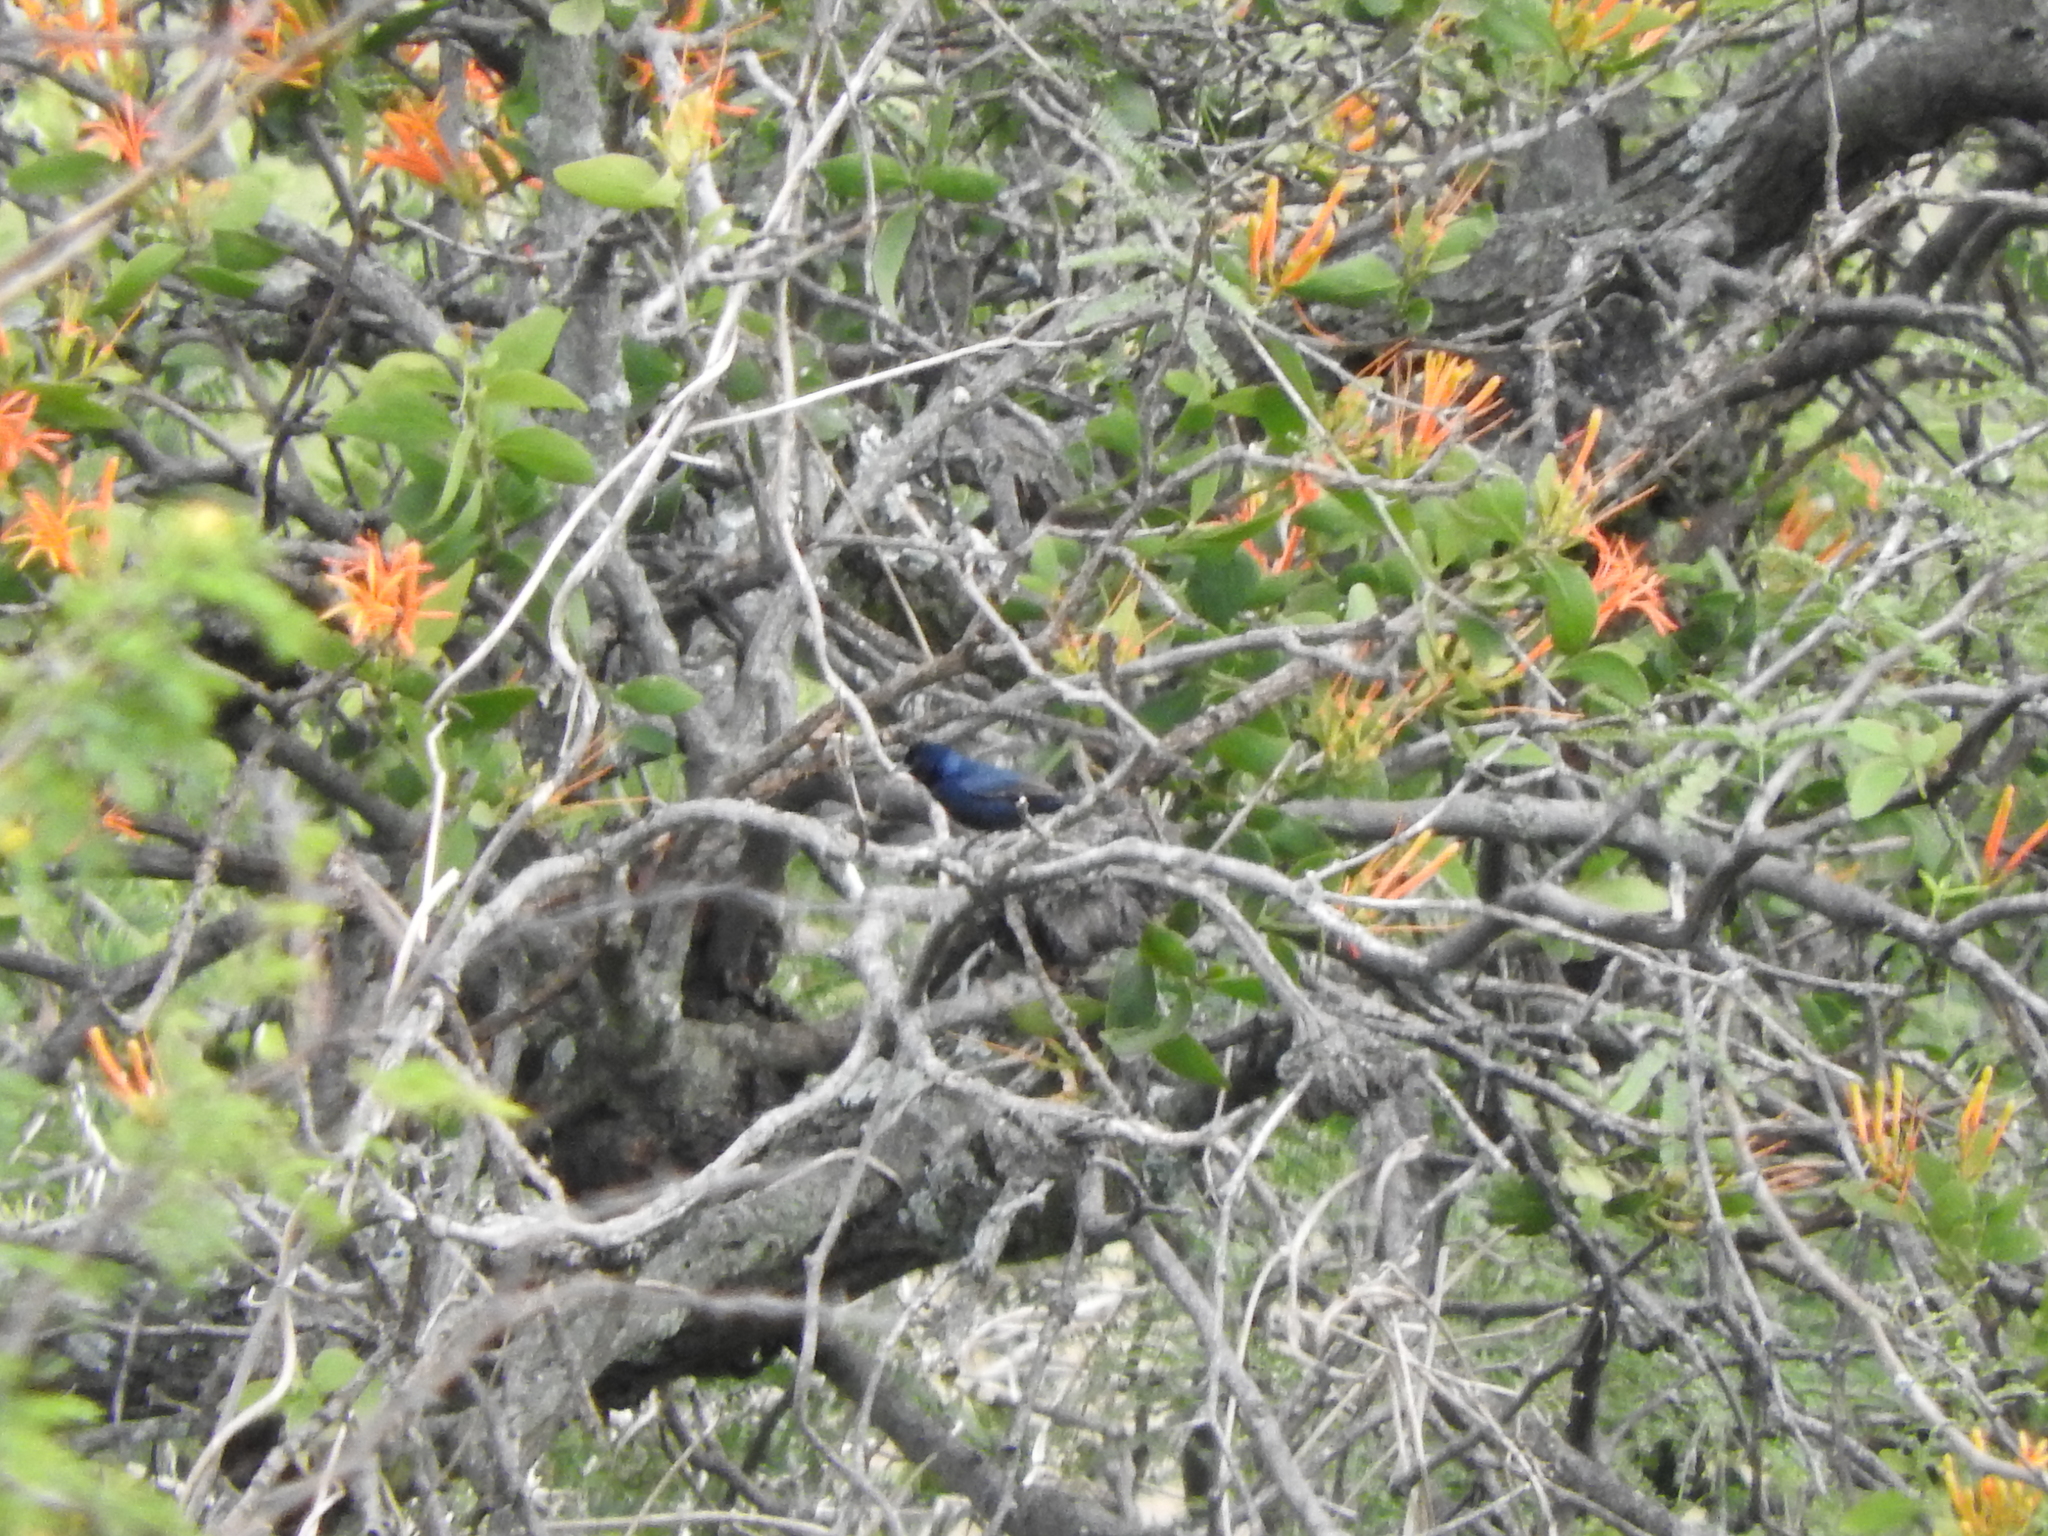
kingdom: Animalia
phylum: Chordata
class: Aves
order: Passeriformes
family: Thraupidae
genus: Volatinia
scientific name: Volatinia jacarina
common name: Blue-black grassquit
